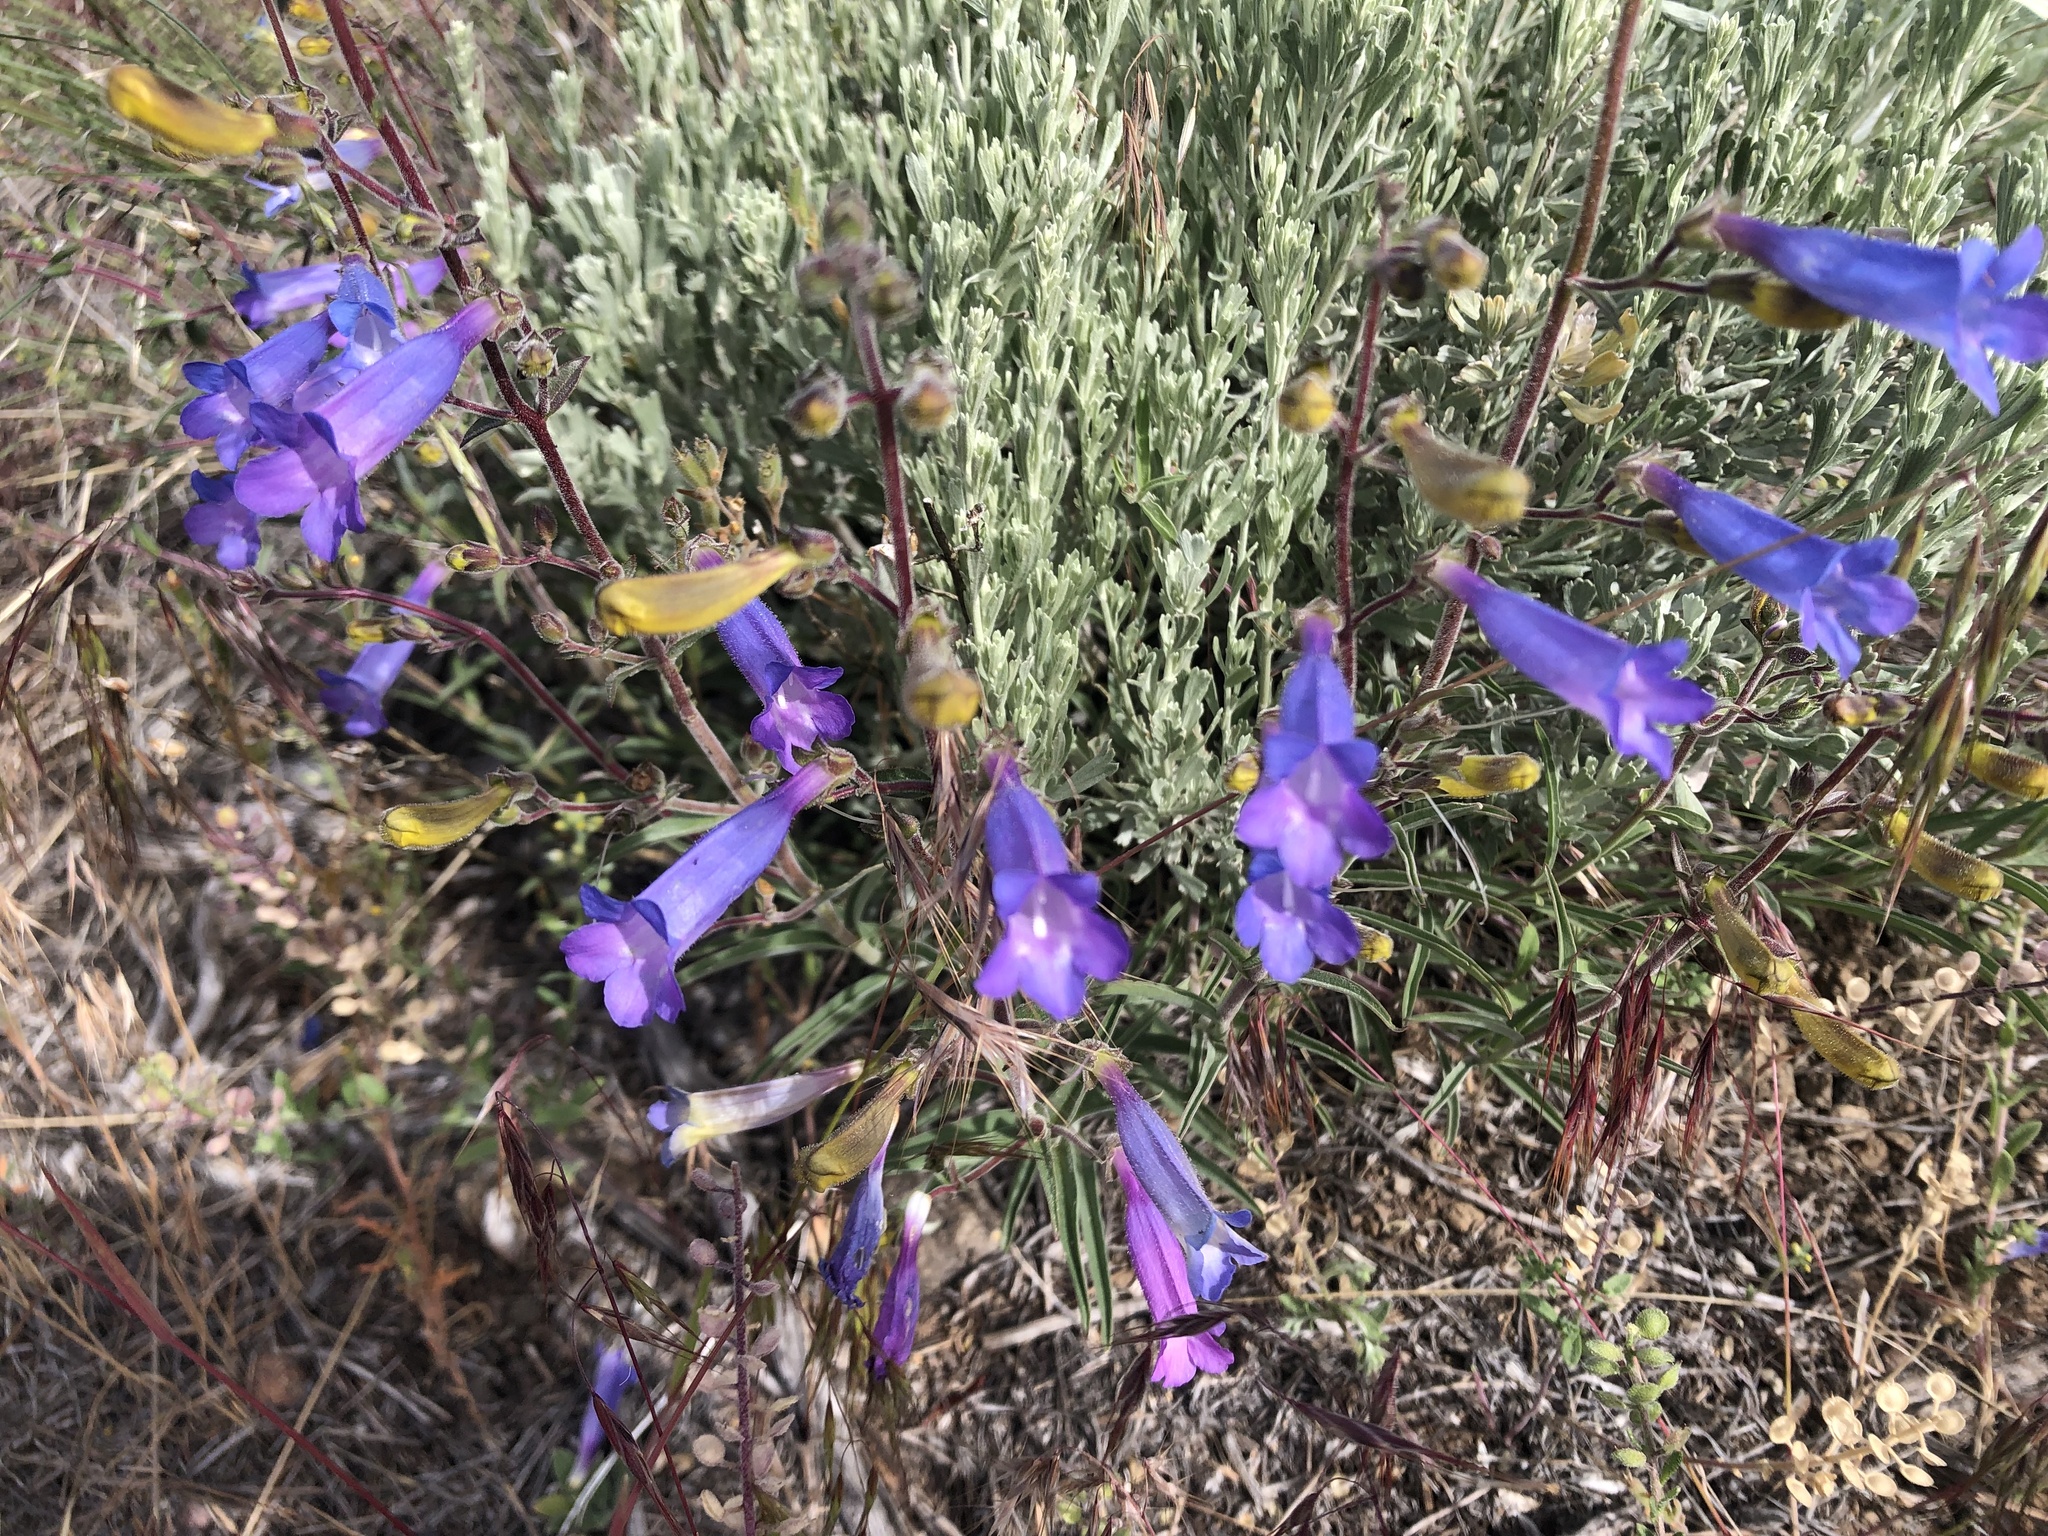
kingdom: Plantae
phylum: Tracheophyta
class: Magnoliopsida
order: Lamiales
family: Plantaginaceae
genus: Penstemon
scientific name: Penstemon roezlii
